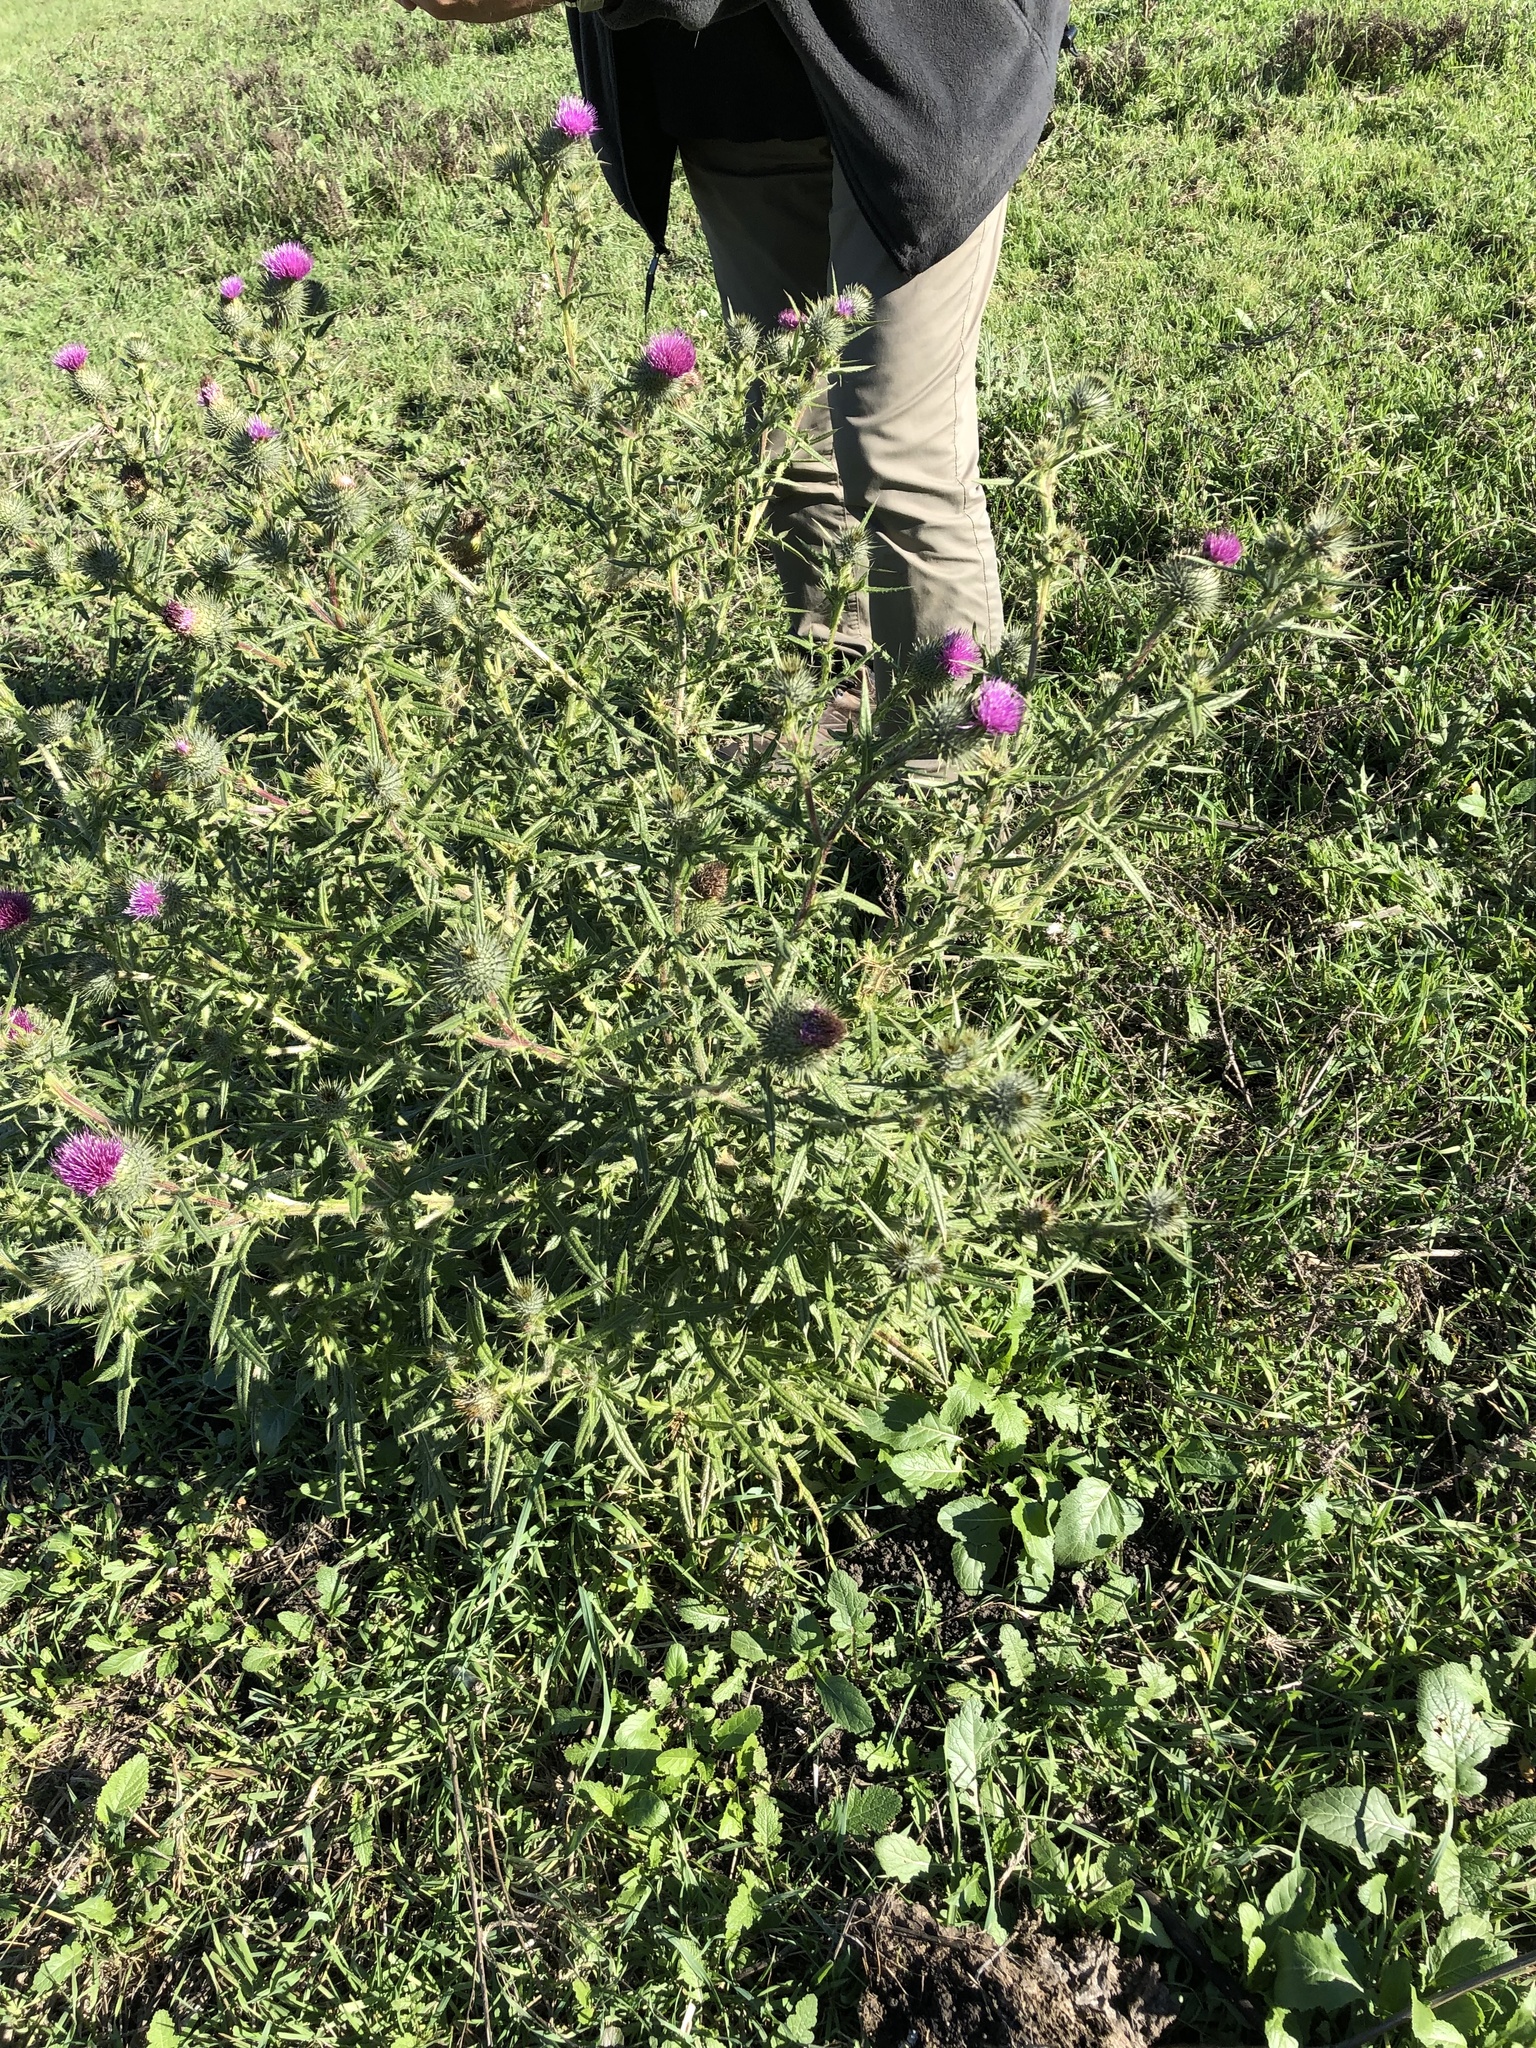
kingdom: Plantae
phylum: Tracheophyta
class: Magnoliopsida
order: Asterales
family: Asteraceae
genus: Cirsium
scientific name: Cirsium vulgare
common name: Bull thistle
